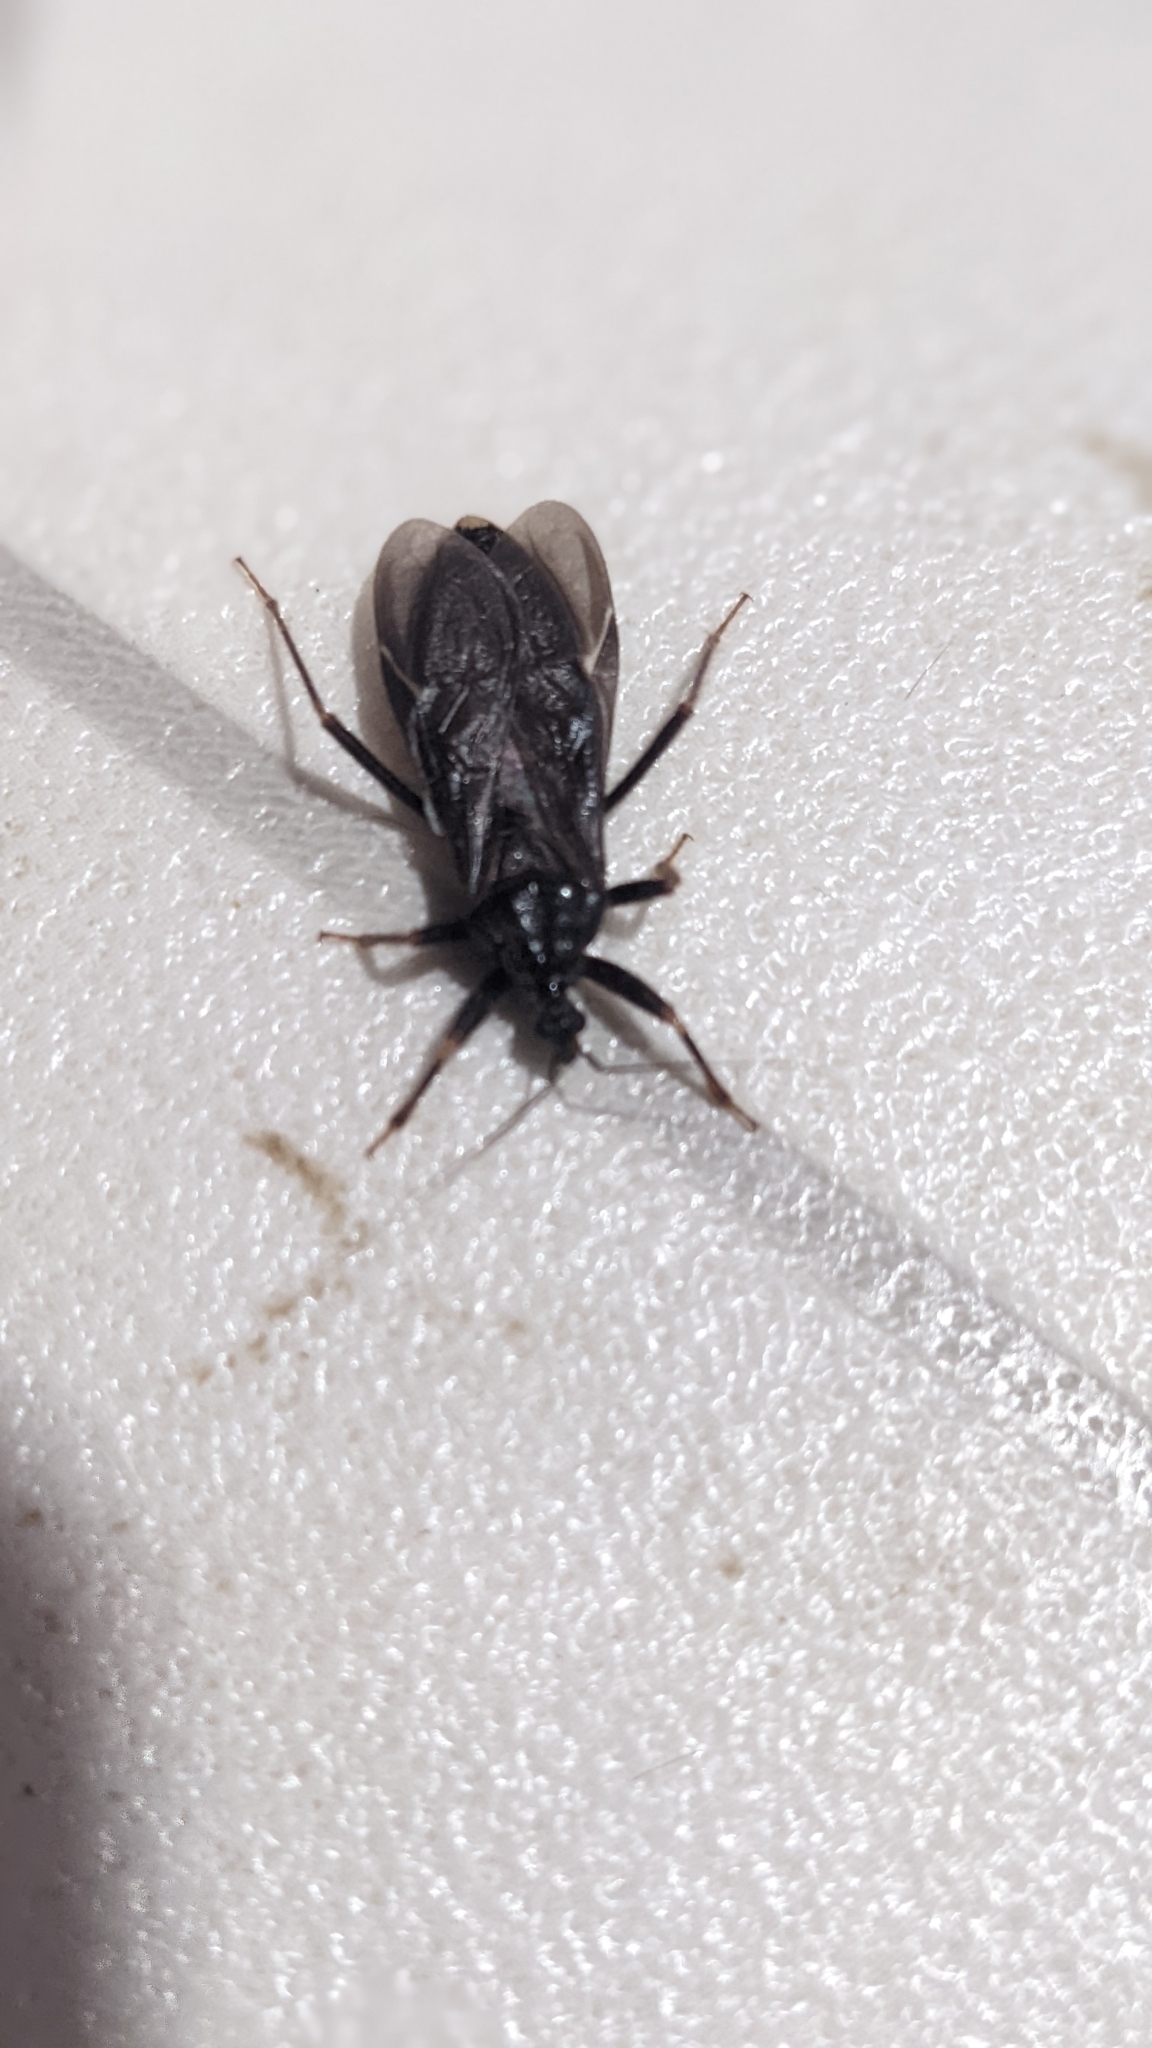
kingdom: Animalia
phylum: Arthropoda
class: Insecta
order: Hemiptera
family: Reduviidae
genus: Reduvius
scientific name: Reduvius personatus
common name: Masked hunter
